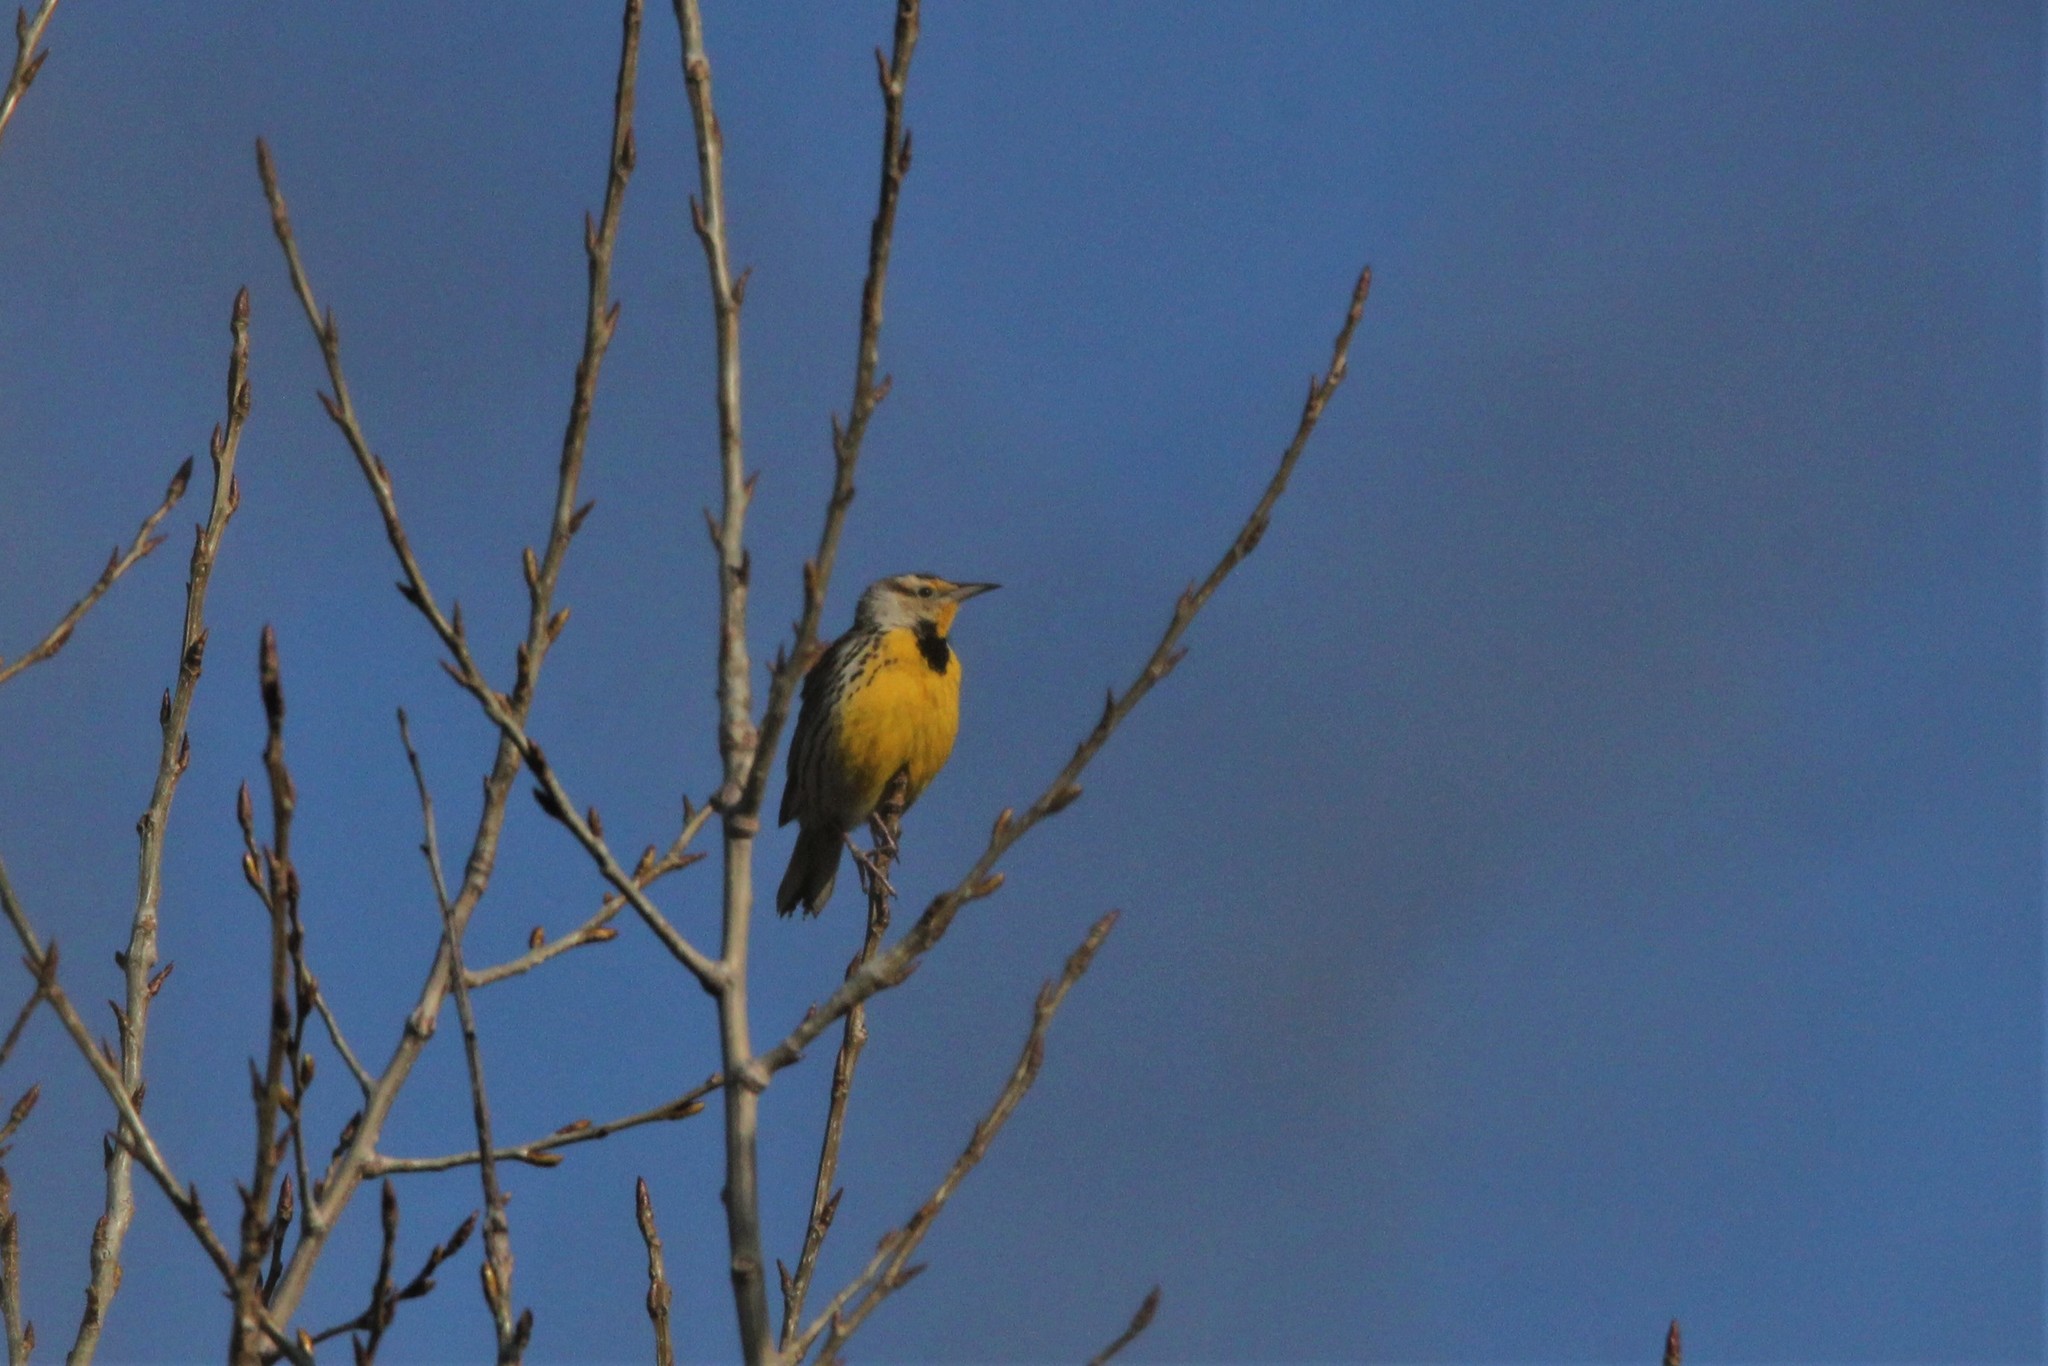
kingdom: Animalia
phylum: Chordata
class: Aves
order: Passeriformes
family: Icteridae
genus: Sturnella
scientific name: Sturnella magna
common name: Eastern meadowlark
